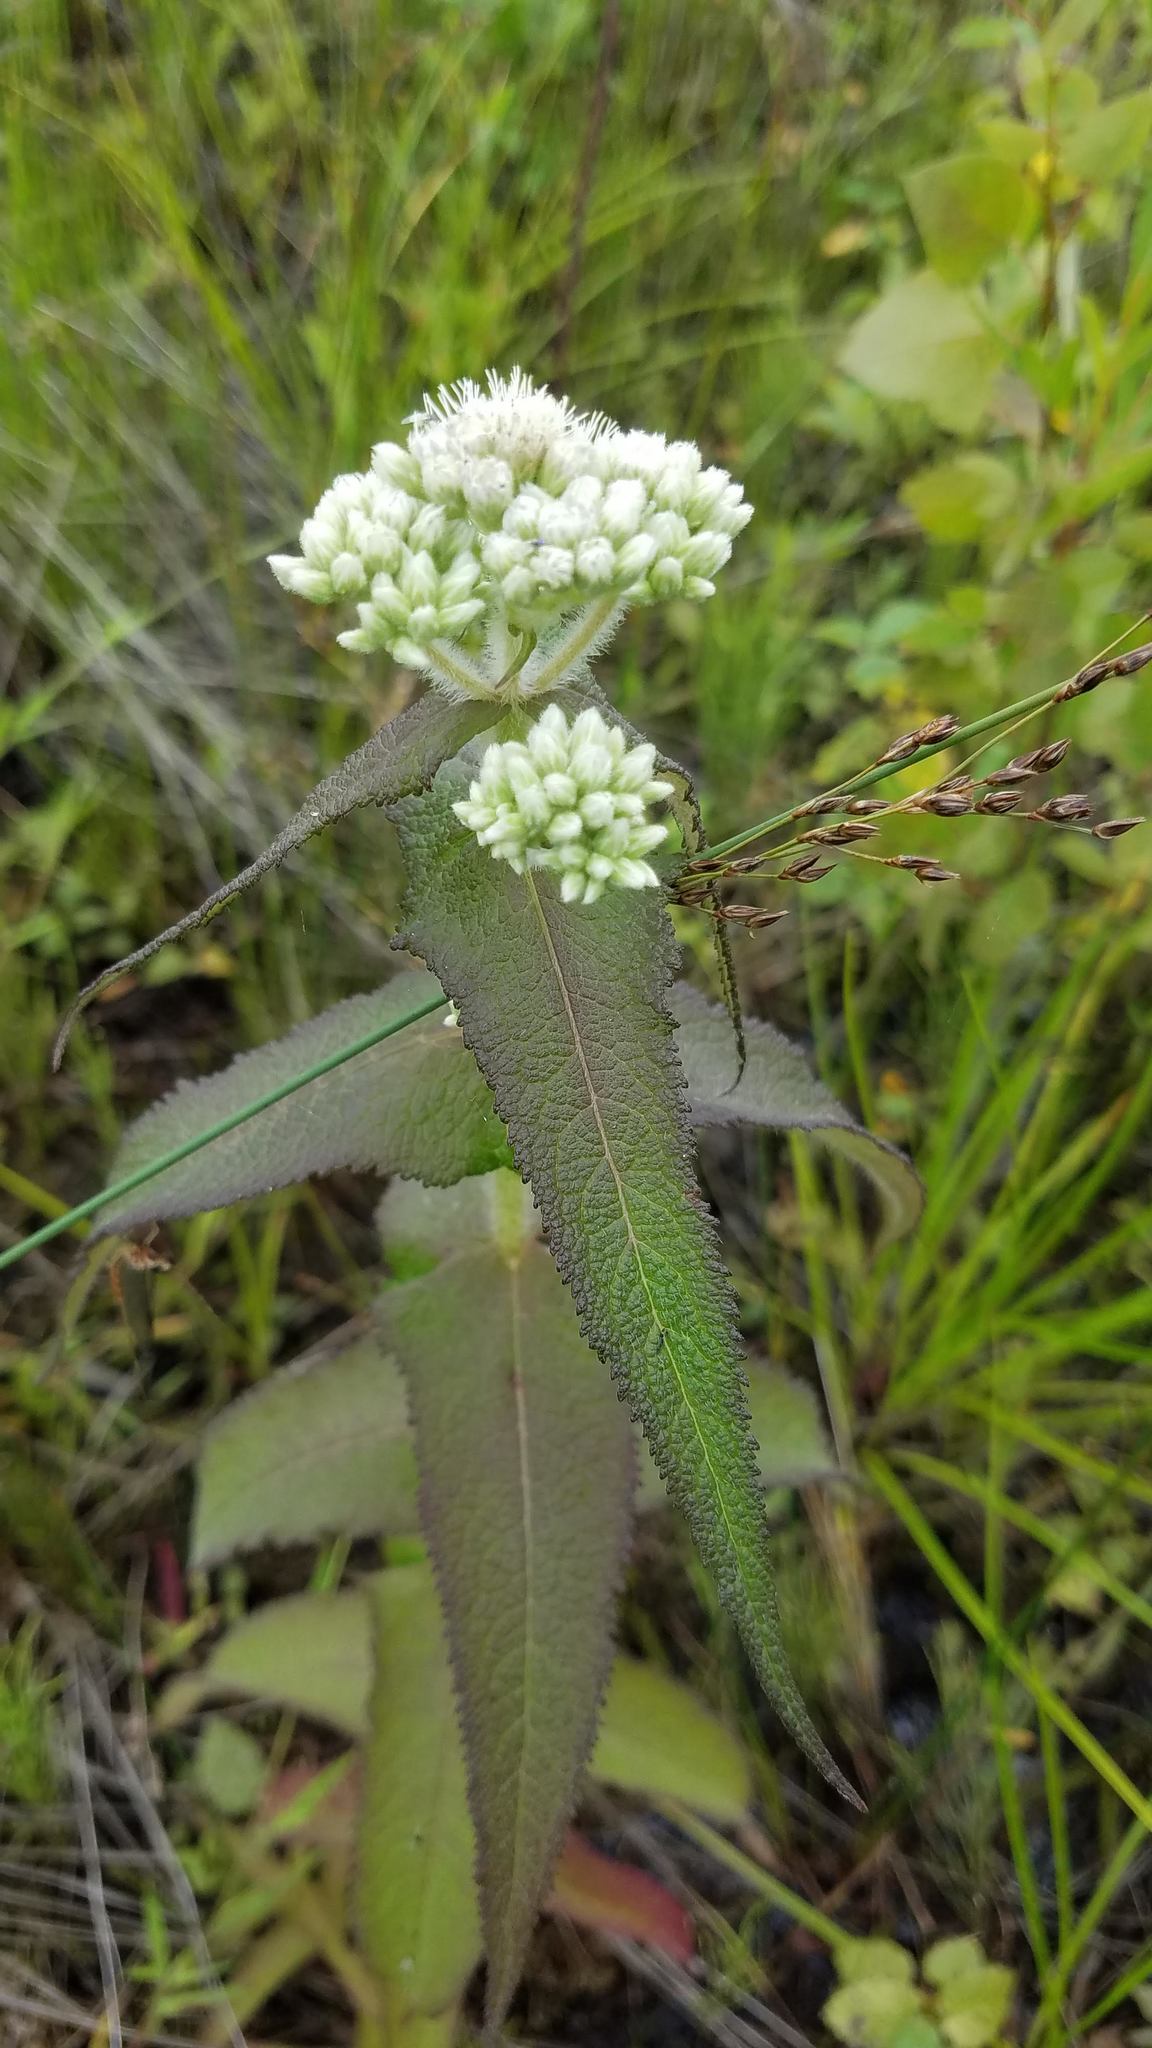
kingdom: Plantae
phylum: Tracheophyta
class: Magnoliopsida
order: Asterales
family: Asteraceae
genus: Eupatorium
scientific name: Eupatorium perfoliatum
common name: Boneset
